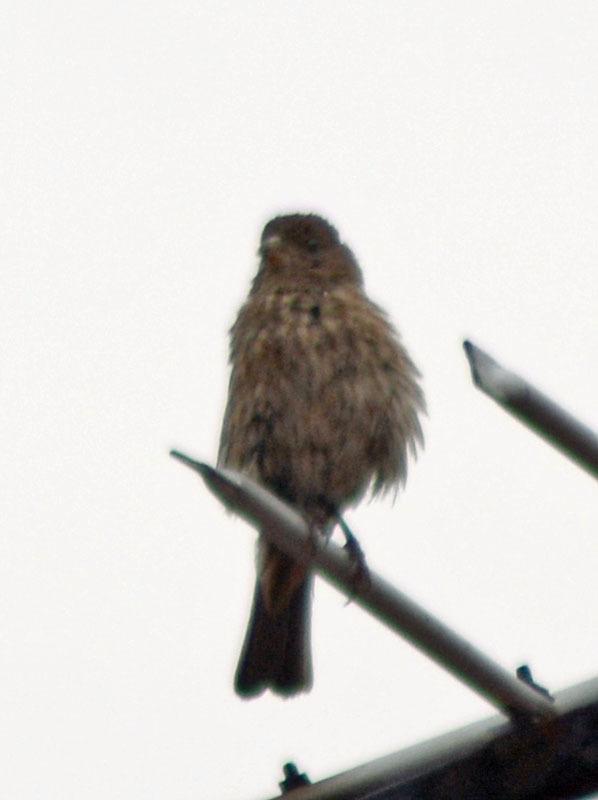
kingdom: Animalia
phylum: Chordata
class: Aves
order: Passeriformes
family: Fringillidae
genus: Haemorhous
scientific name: Haemorhous mexicanus
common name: House finch
